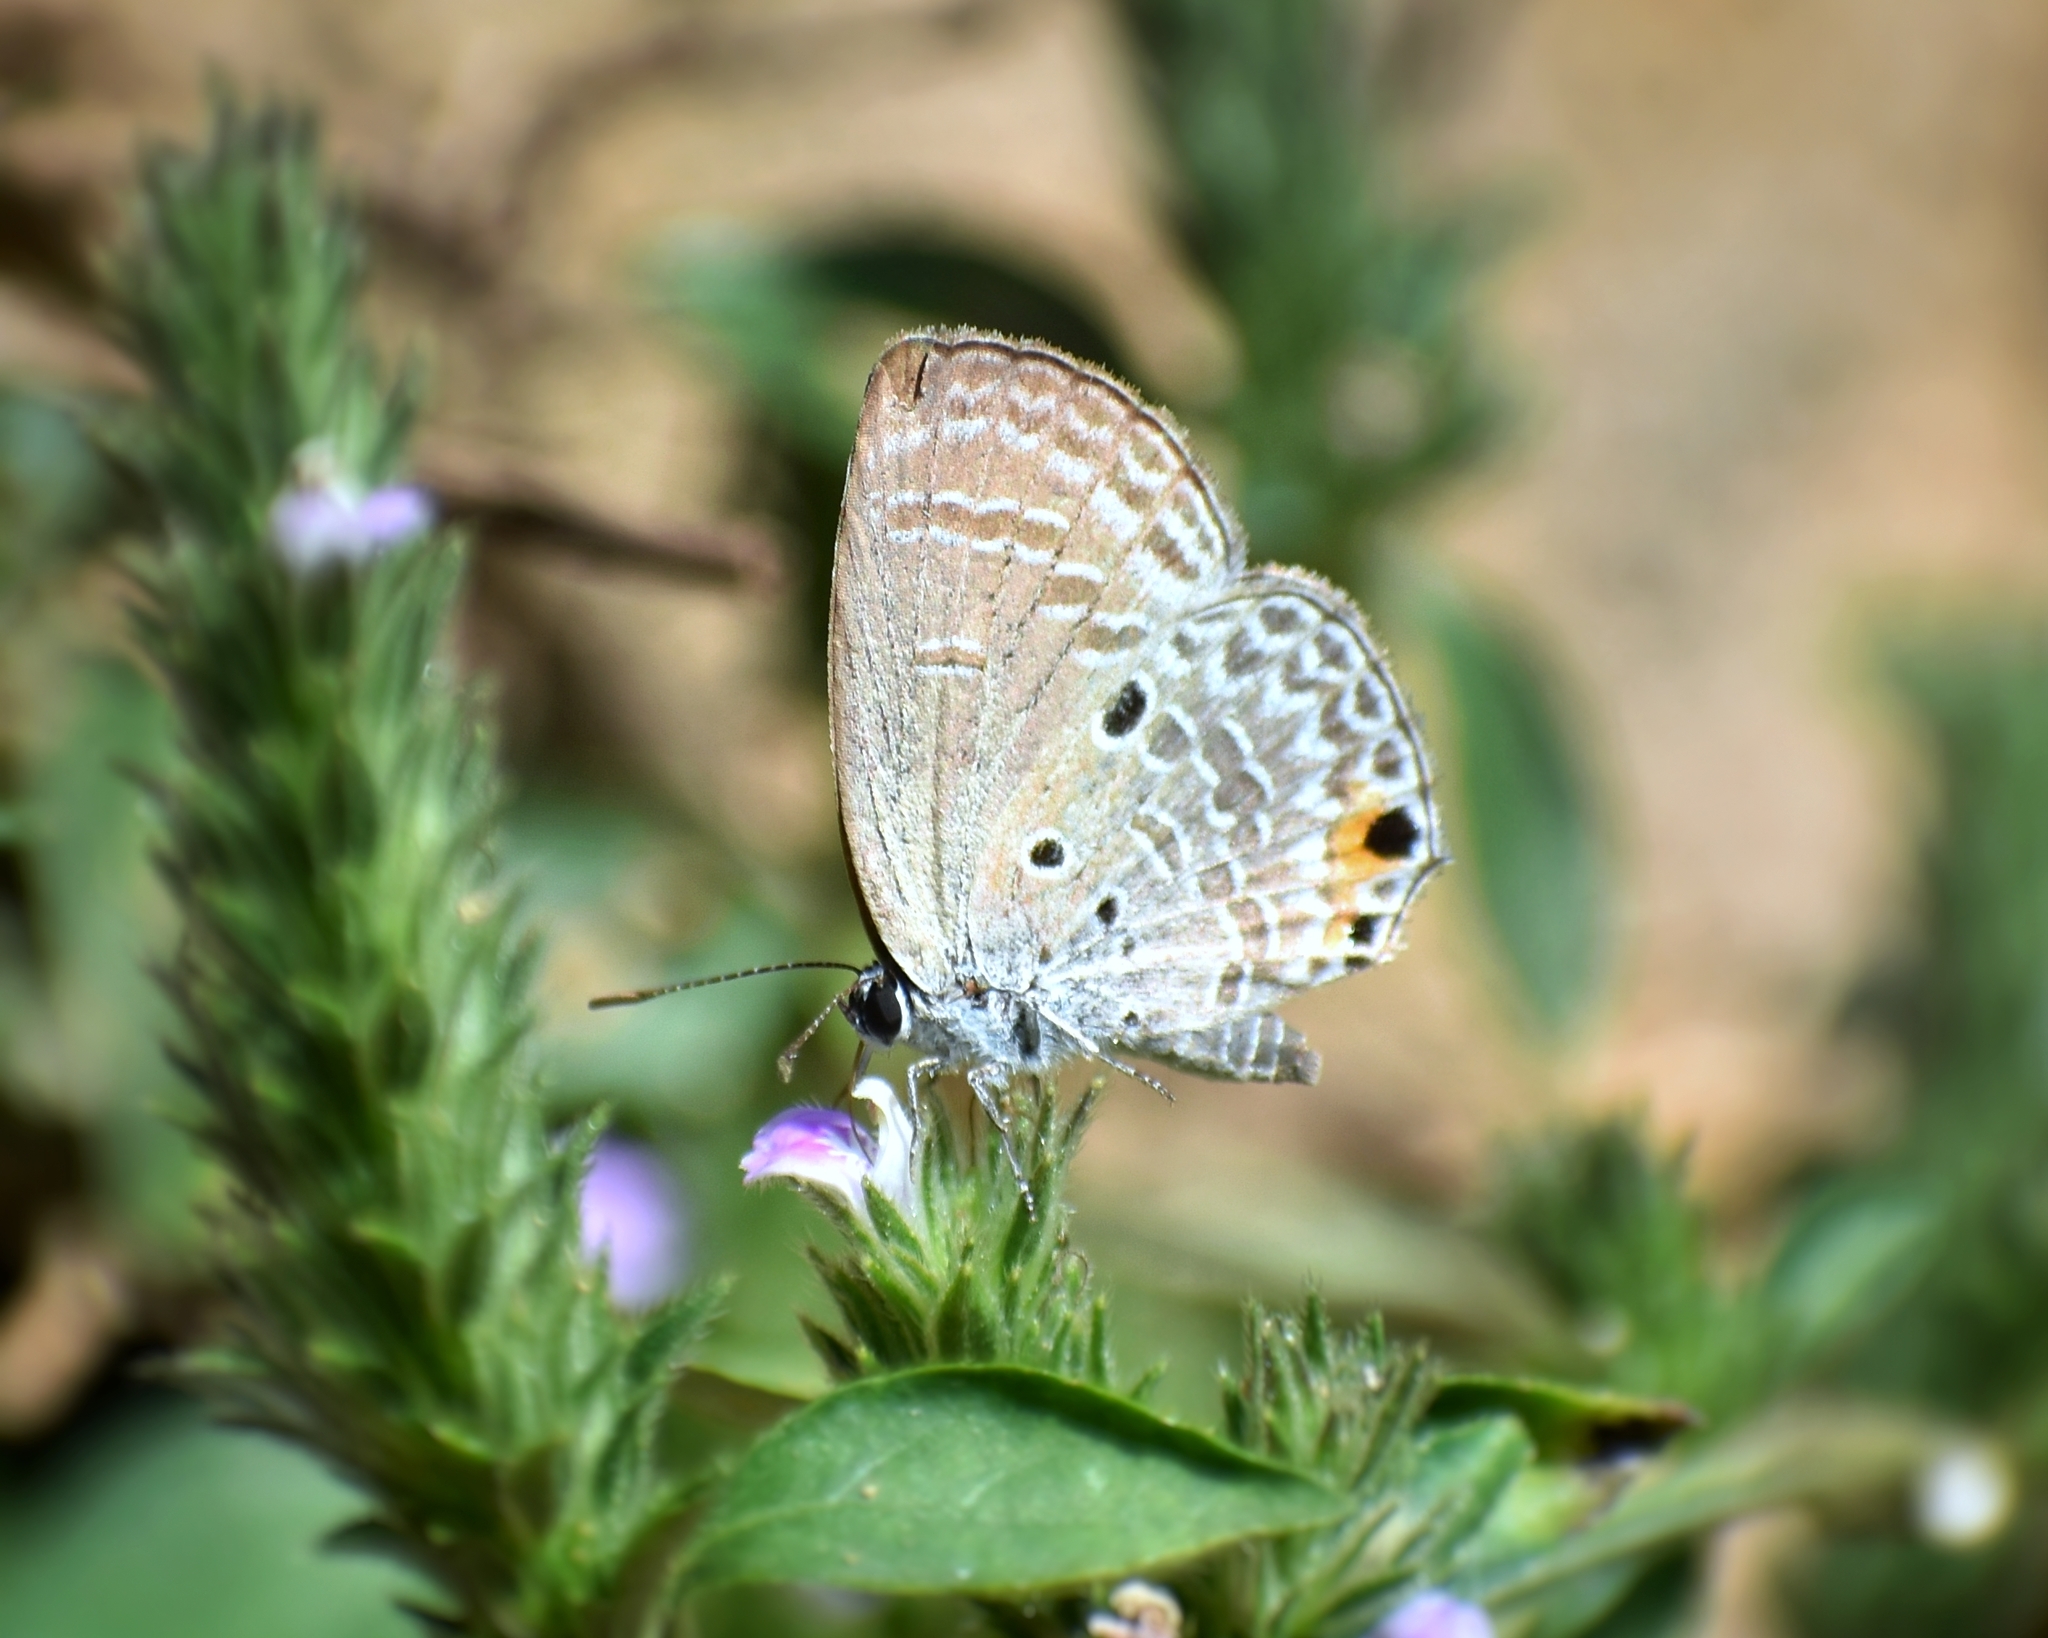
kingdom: Animalia
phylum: Arthropoda
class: Insecta
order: Lepidoptera
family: Lycaenidae
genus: Luthrodes
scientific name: Luthrodes pandava
